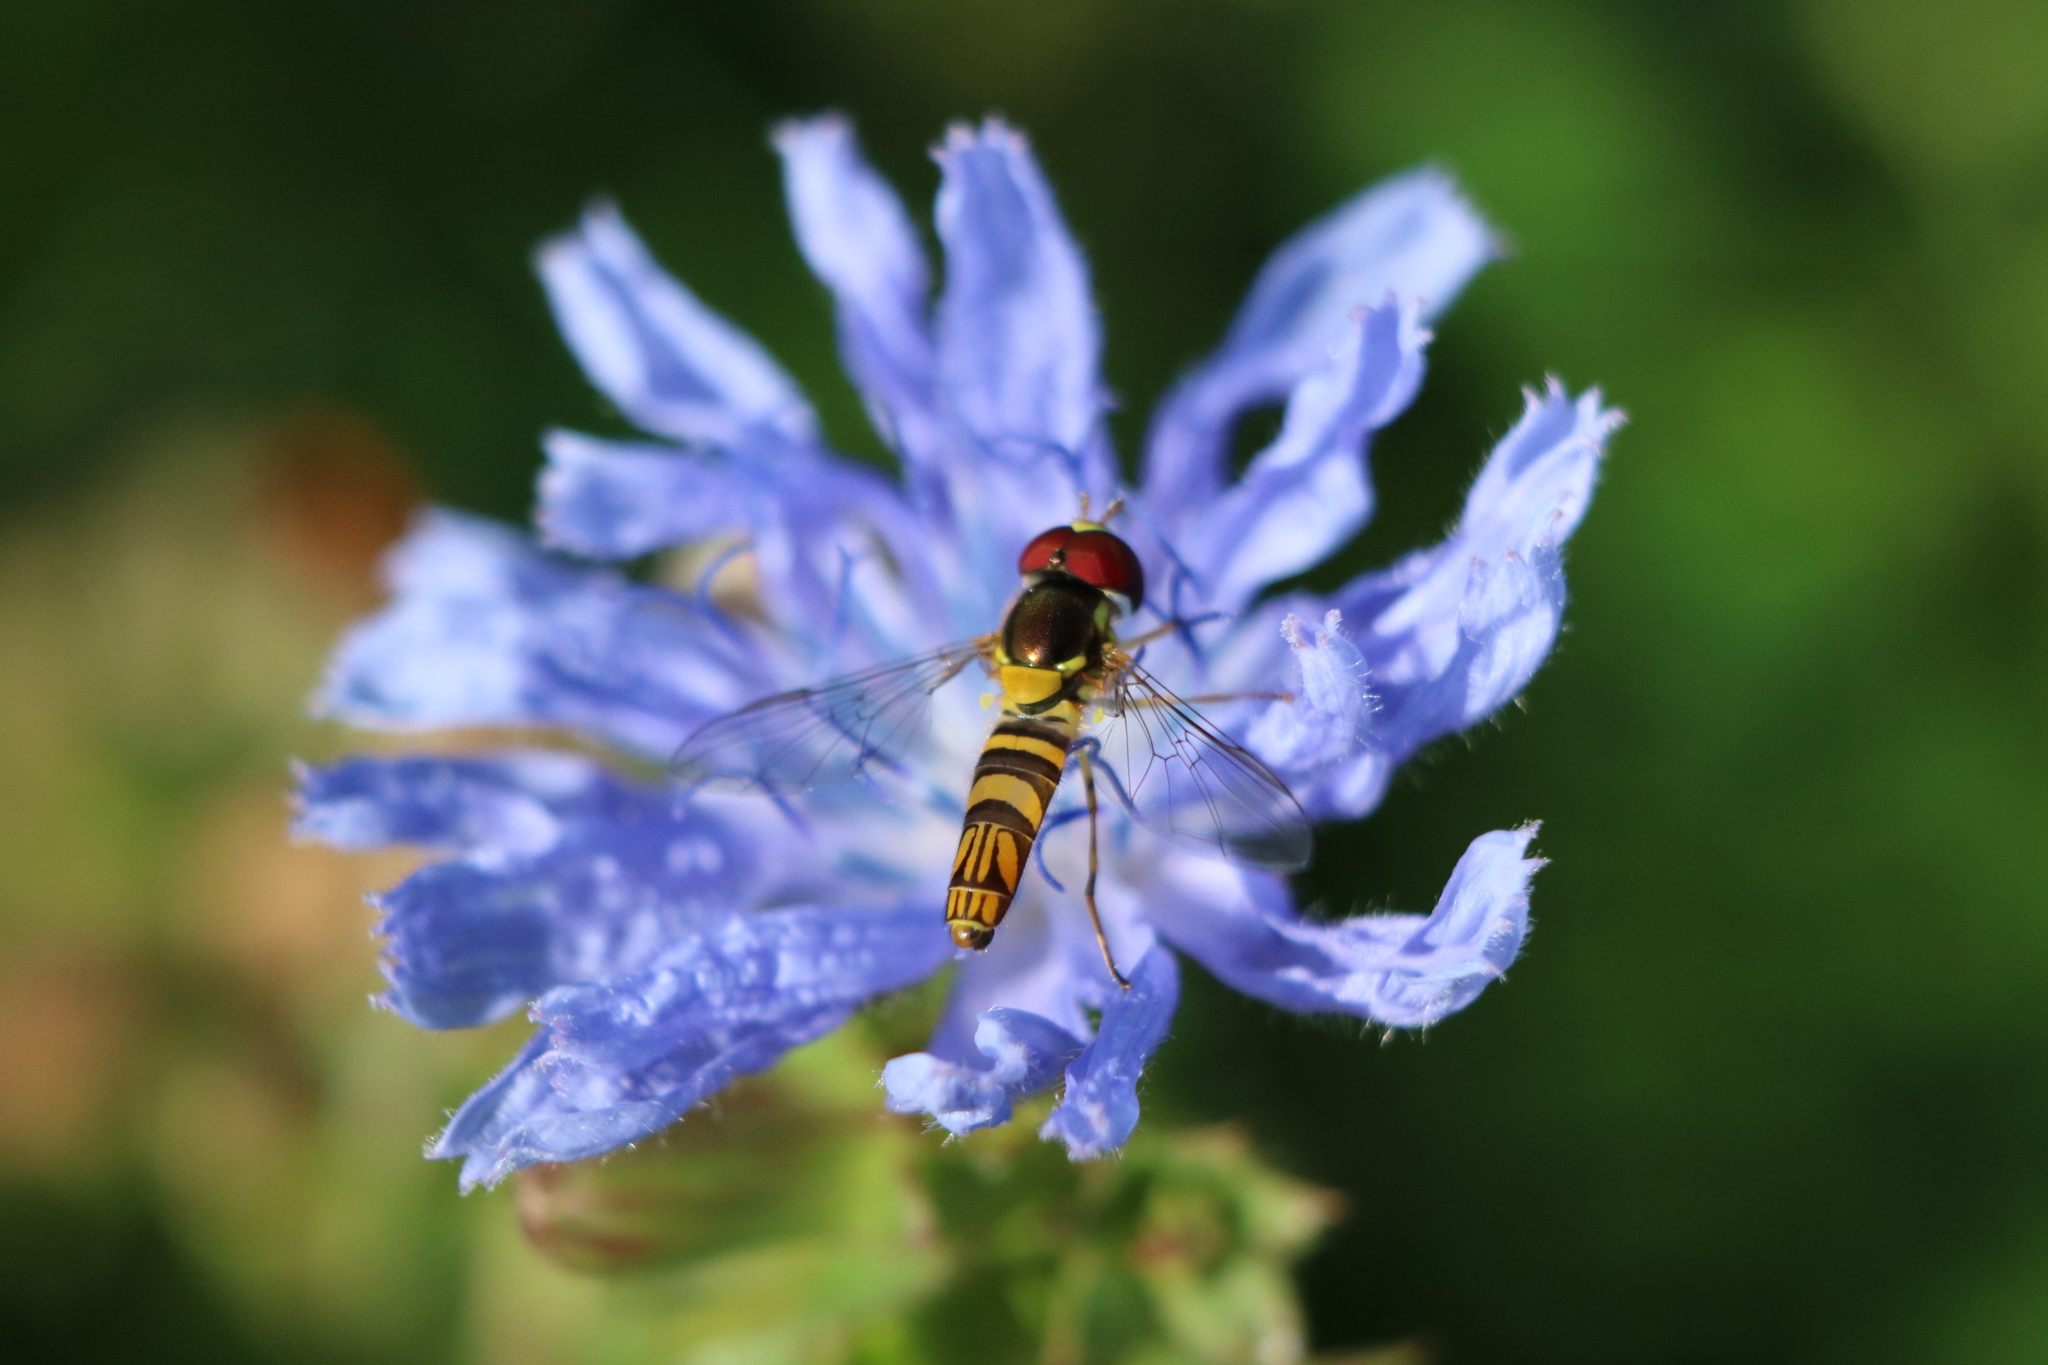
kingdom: Animalia
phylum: Arthropoda
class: Insecta
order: Diptera
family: Syrphidae
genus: Allograpta
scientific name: Allograpta obliqua
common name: Common oblique syrphid
